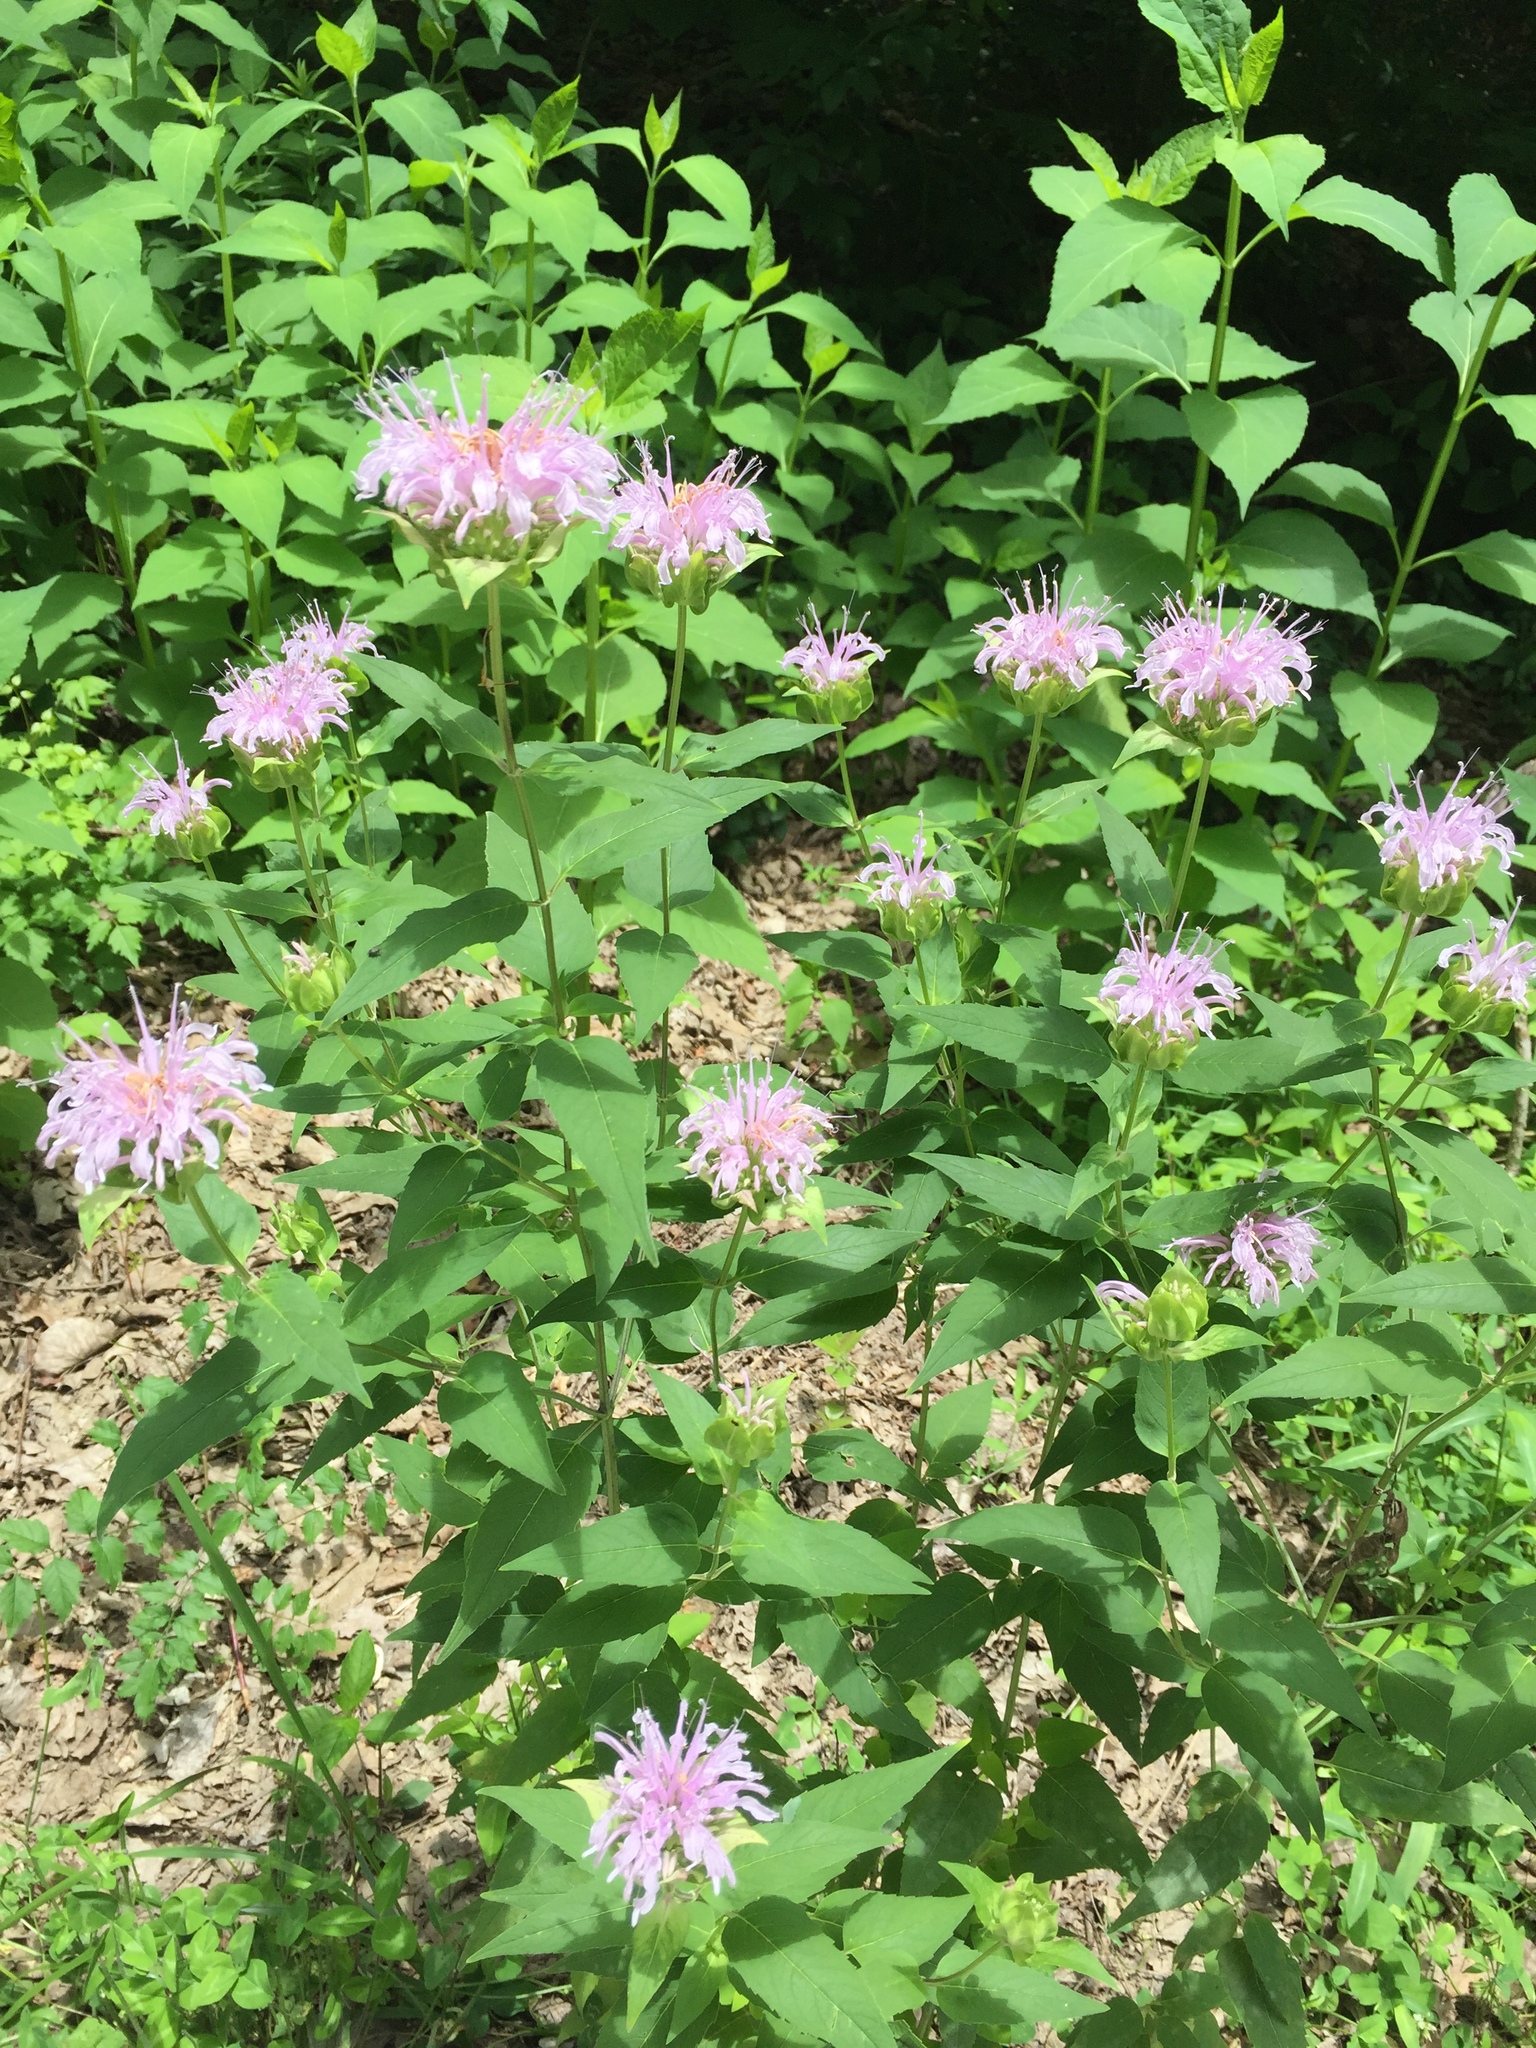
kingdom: Plantae
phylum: Tracheophyta
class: Magnoliopsida
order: Lamiales
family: Lamiaceae
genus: Monarda
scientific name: Monarda fistulosa
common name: Purple beebalm
